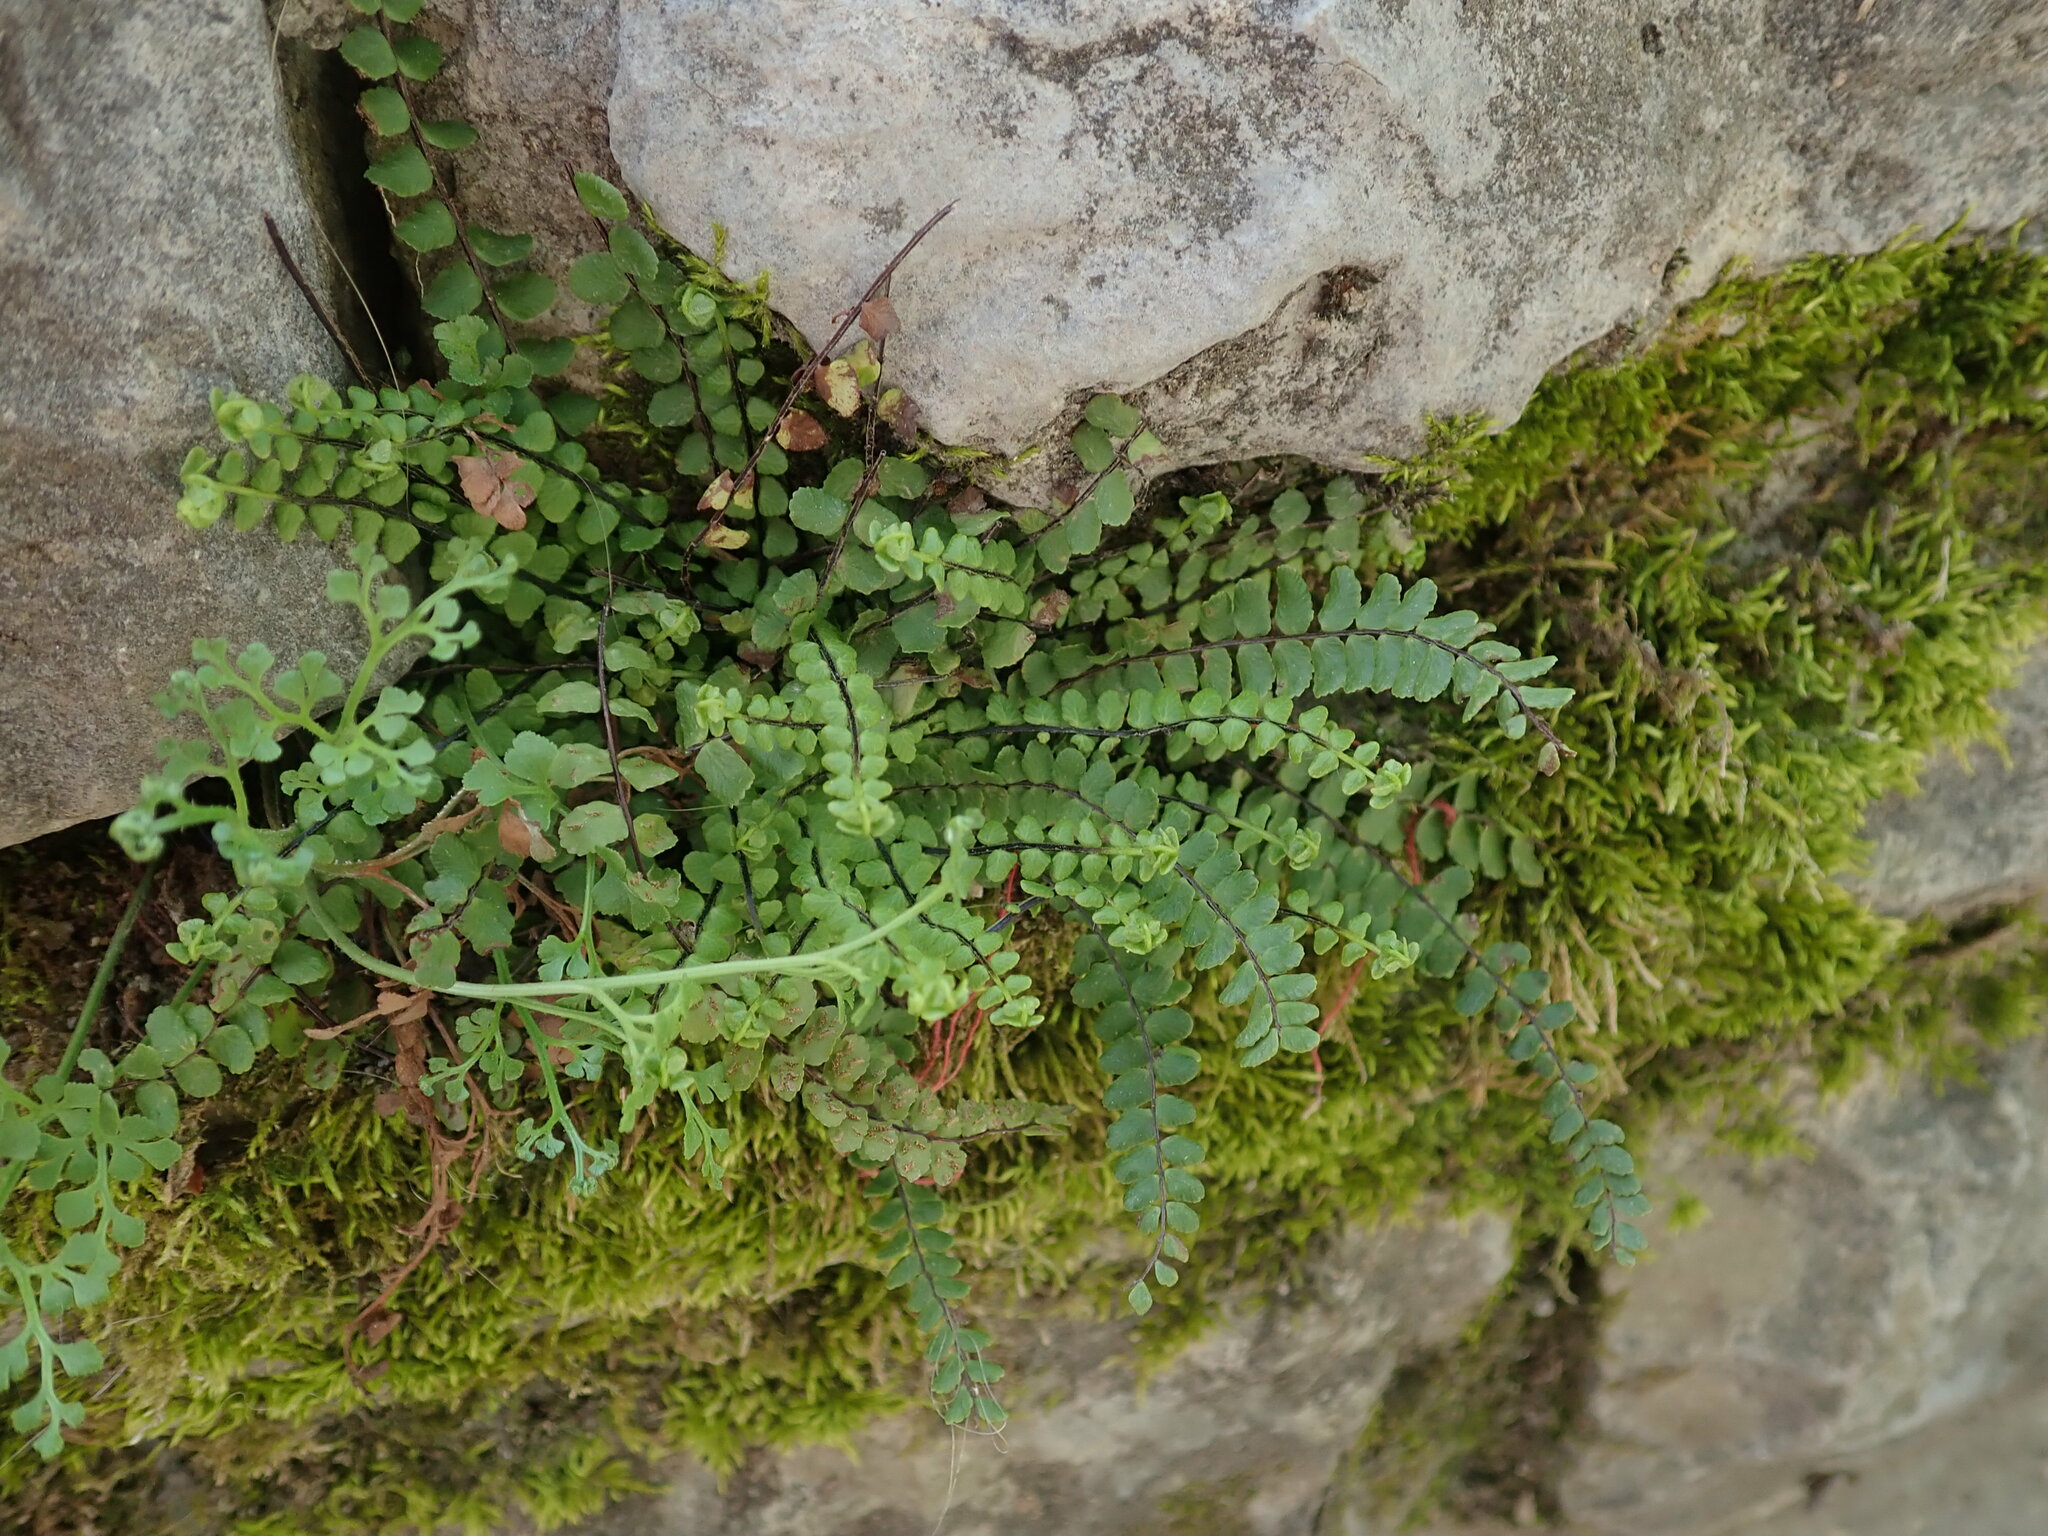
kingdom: Plantae
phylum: Tracheophyta
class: Polypodiopsida
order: Polypodiales
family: Aspleniaceae
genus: Asplenium
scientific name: Asplenium trichomanes
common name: Maidenhair spleenwort
